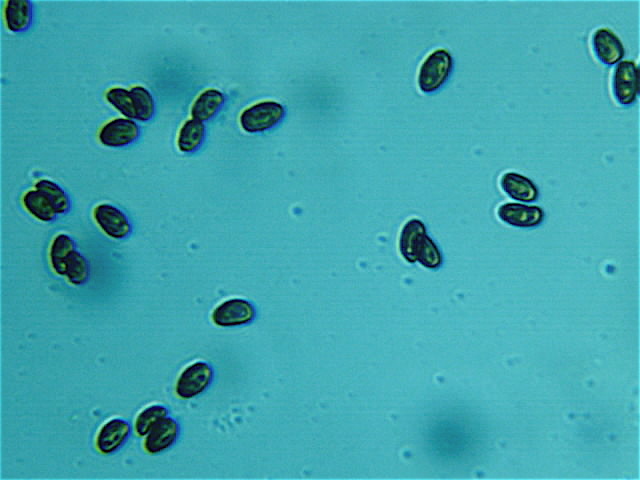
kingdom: Fungi
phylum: Basidiomycota
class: Agaricomycetes
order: Agaricales
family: Hymenogastraceae
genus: Psilocybe
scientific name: Psilocybe cyanescens
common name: Blueleg brownie
